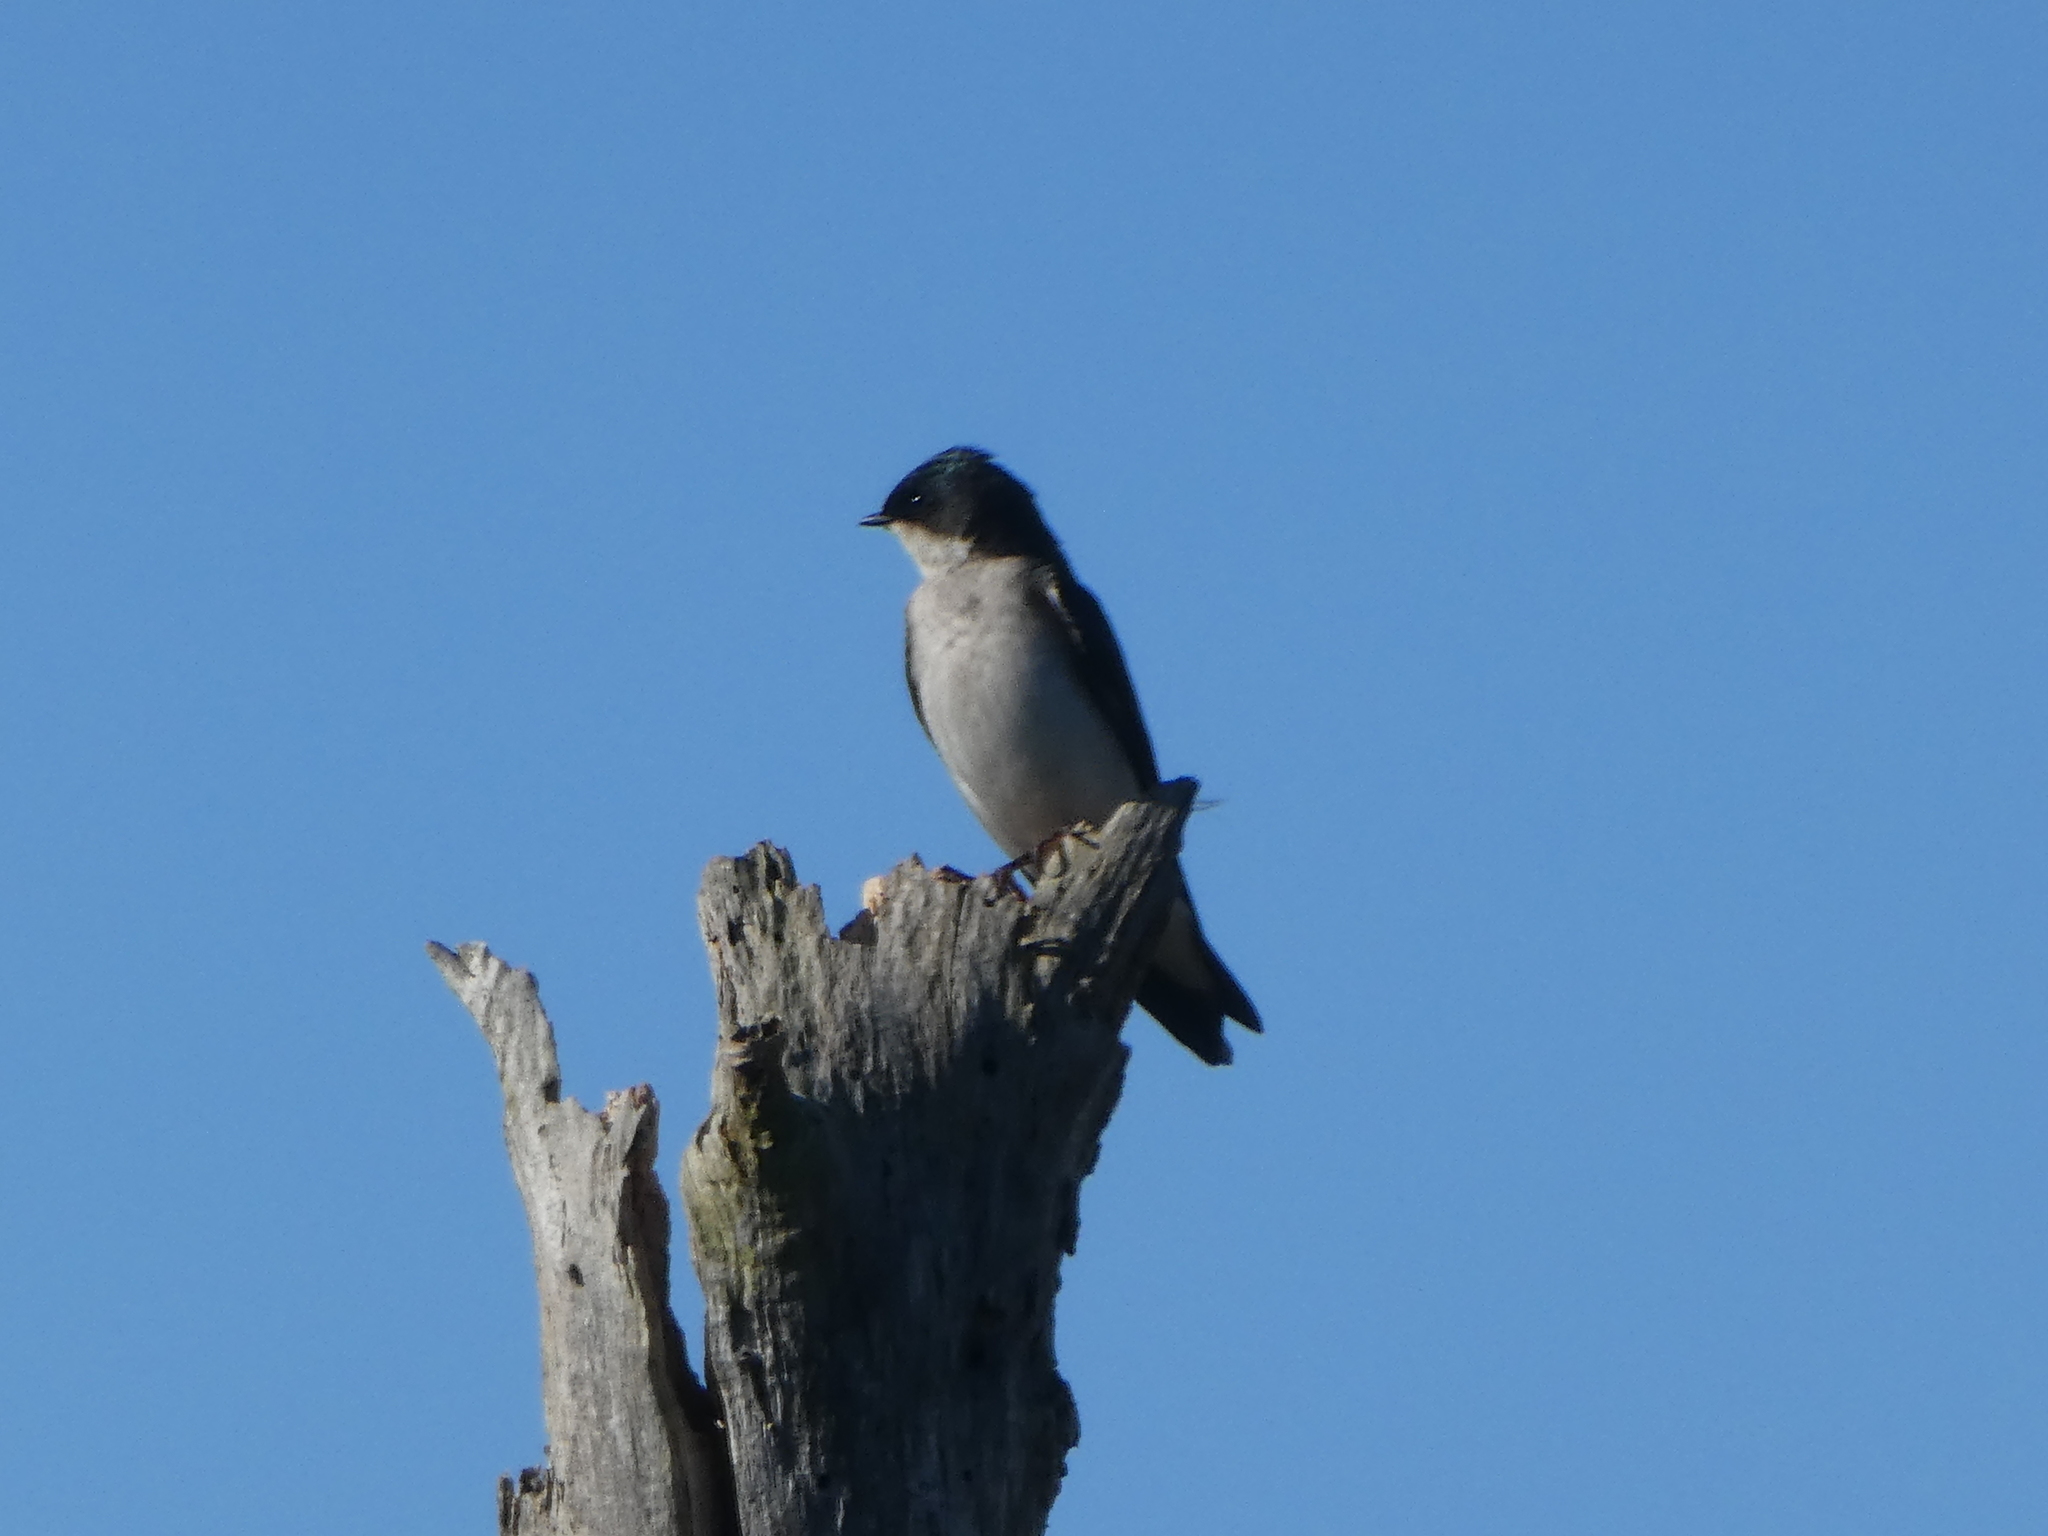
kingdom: Animalia
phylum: Chordata
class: Aves
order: Passeriformes
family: Hirundinidae
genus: Tachycineta
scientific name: Tachycineta bicolor
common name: Tree swallow
